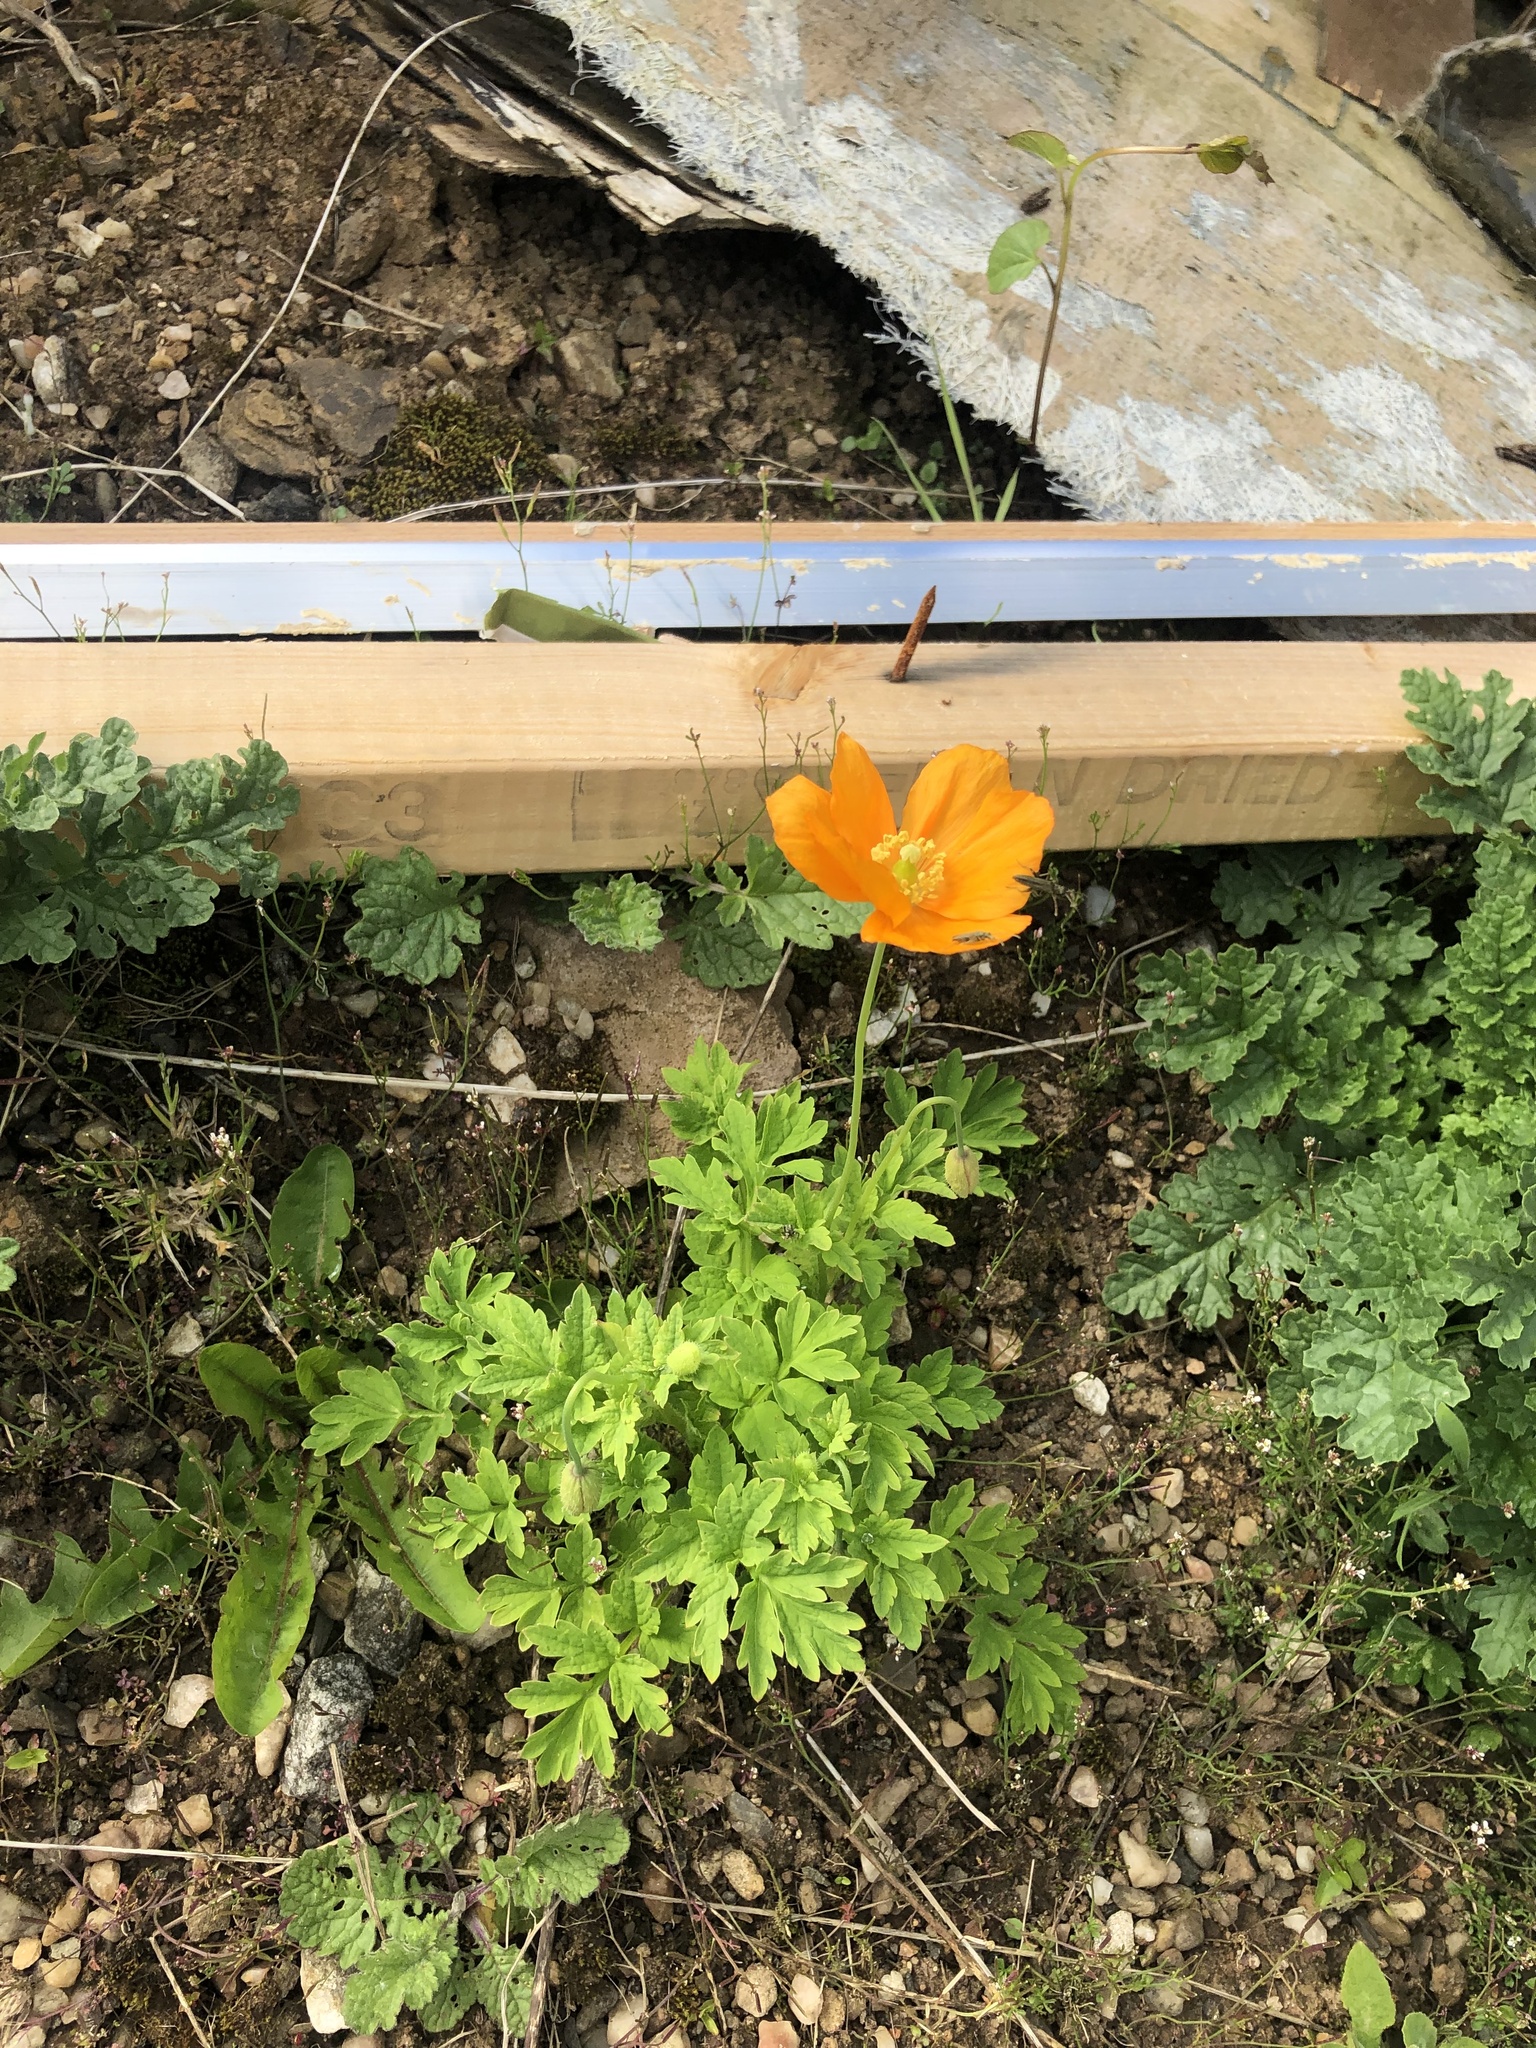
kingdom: Plantae
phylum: Tracheophyta
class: Magnoliopsida
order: Ranunculales
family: Papaveraceae
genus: Papaver
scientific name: Papaver cambricum
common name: Poppy
